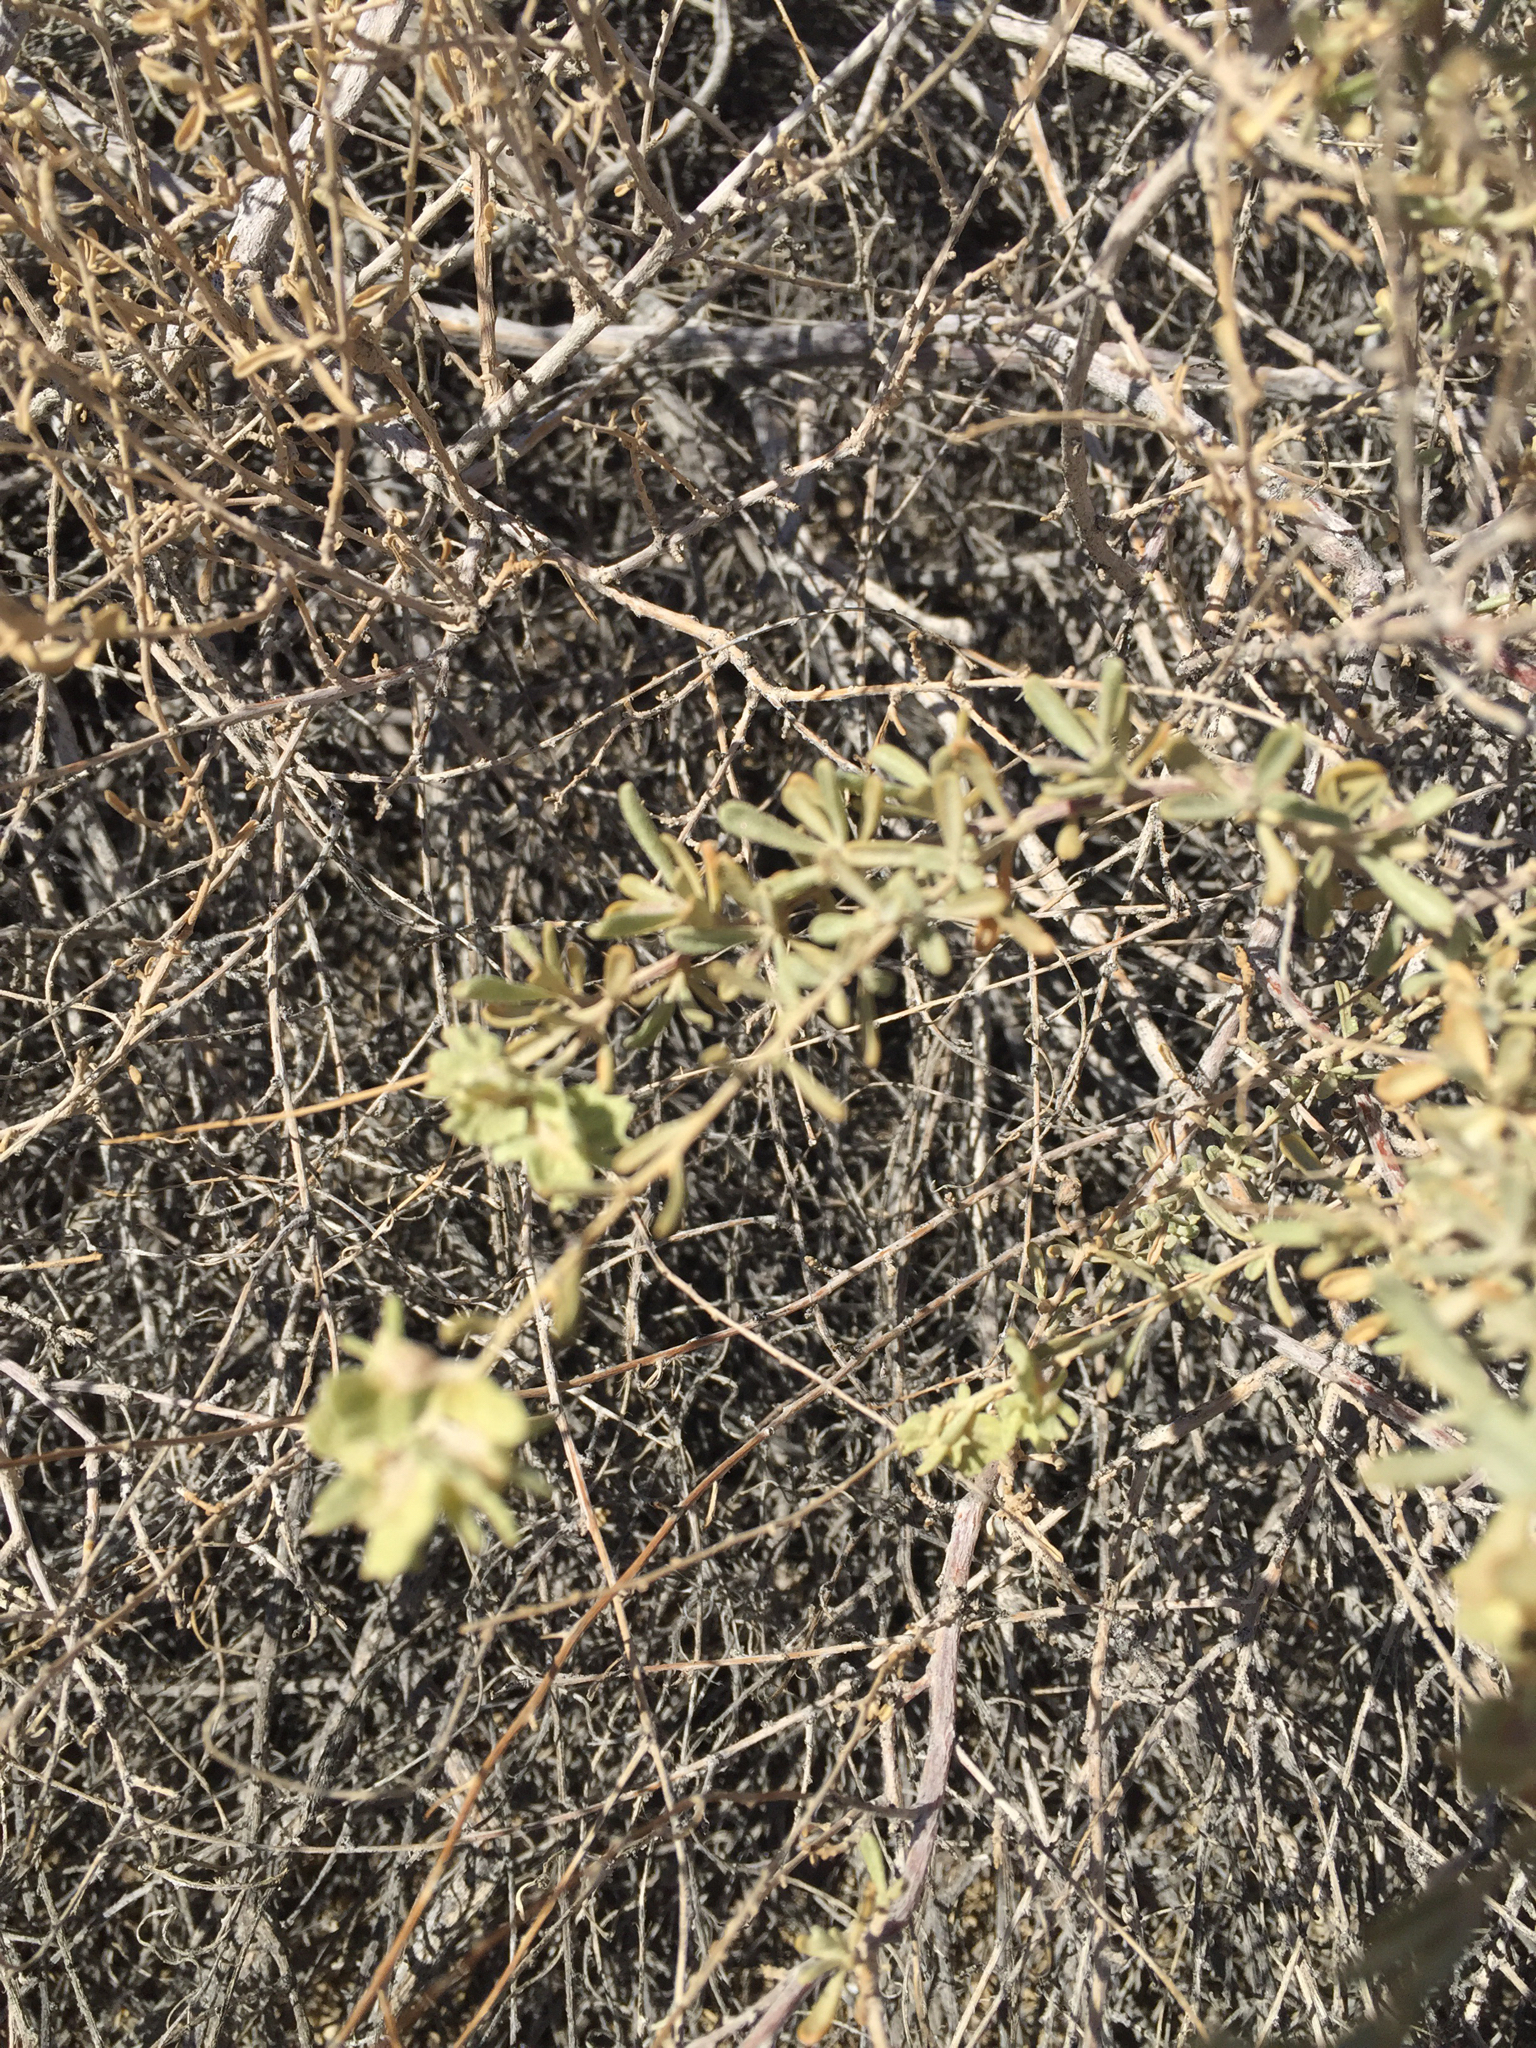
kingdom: Plantae
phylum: Tracheophyta
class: Magnoliopsida
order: Caryophyllales
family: Amaranthaceae
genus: Atriplex
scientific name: Atriplex canescens
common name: Four-wing saltbush
